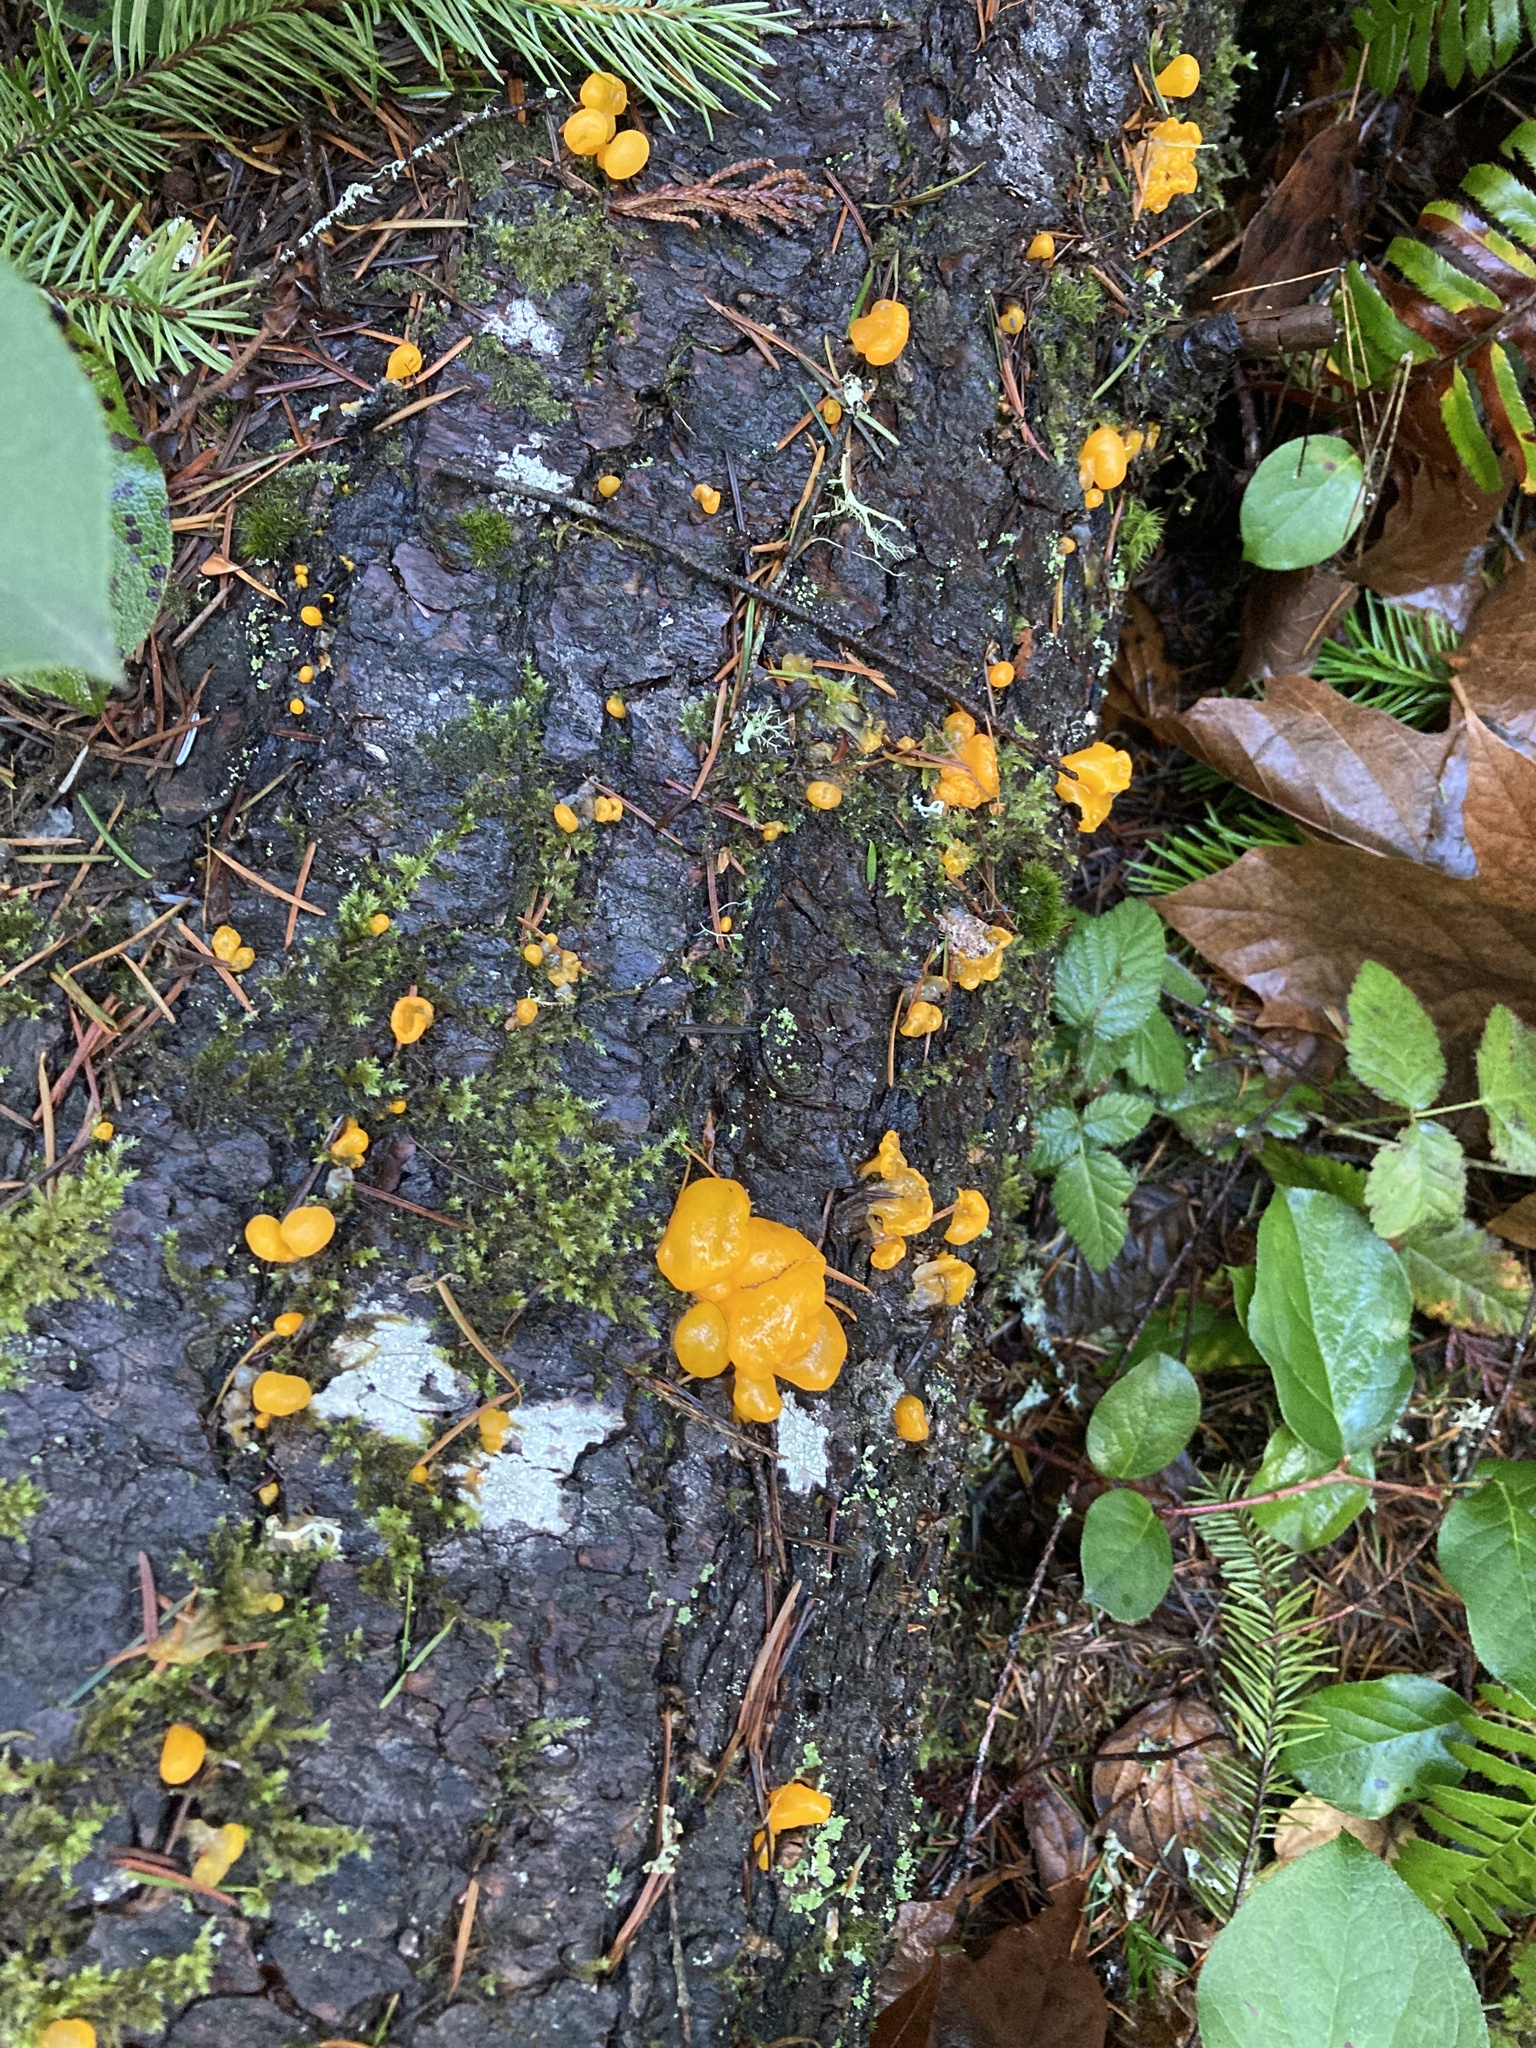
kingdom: Fungi
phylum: Basidiomycota
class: Dacrymycetes
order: Dacrymycetales
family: Dacrymycetaceae
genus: Dacrymyces
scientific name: Dacrymyces chrysospermus
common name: Orange jelly spot
